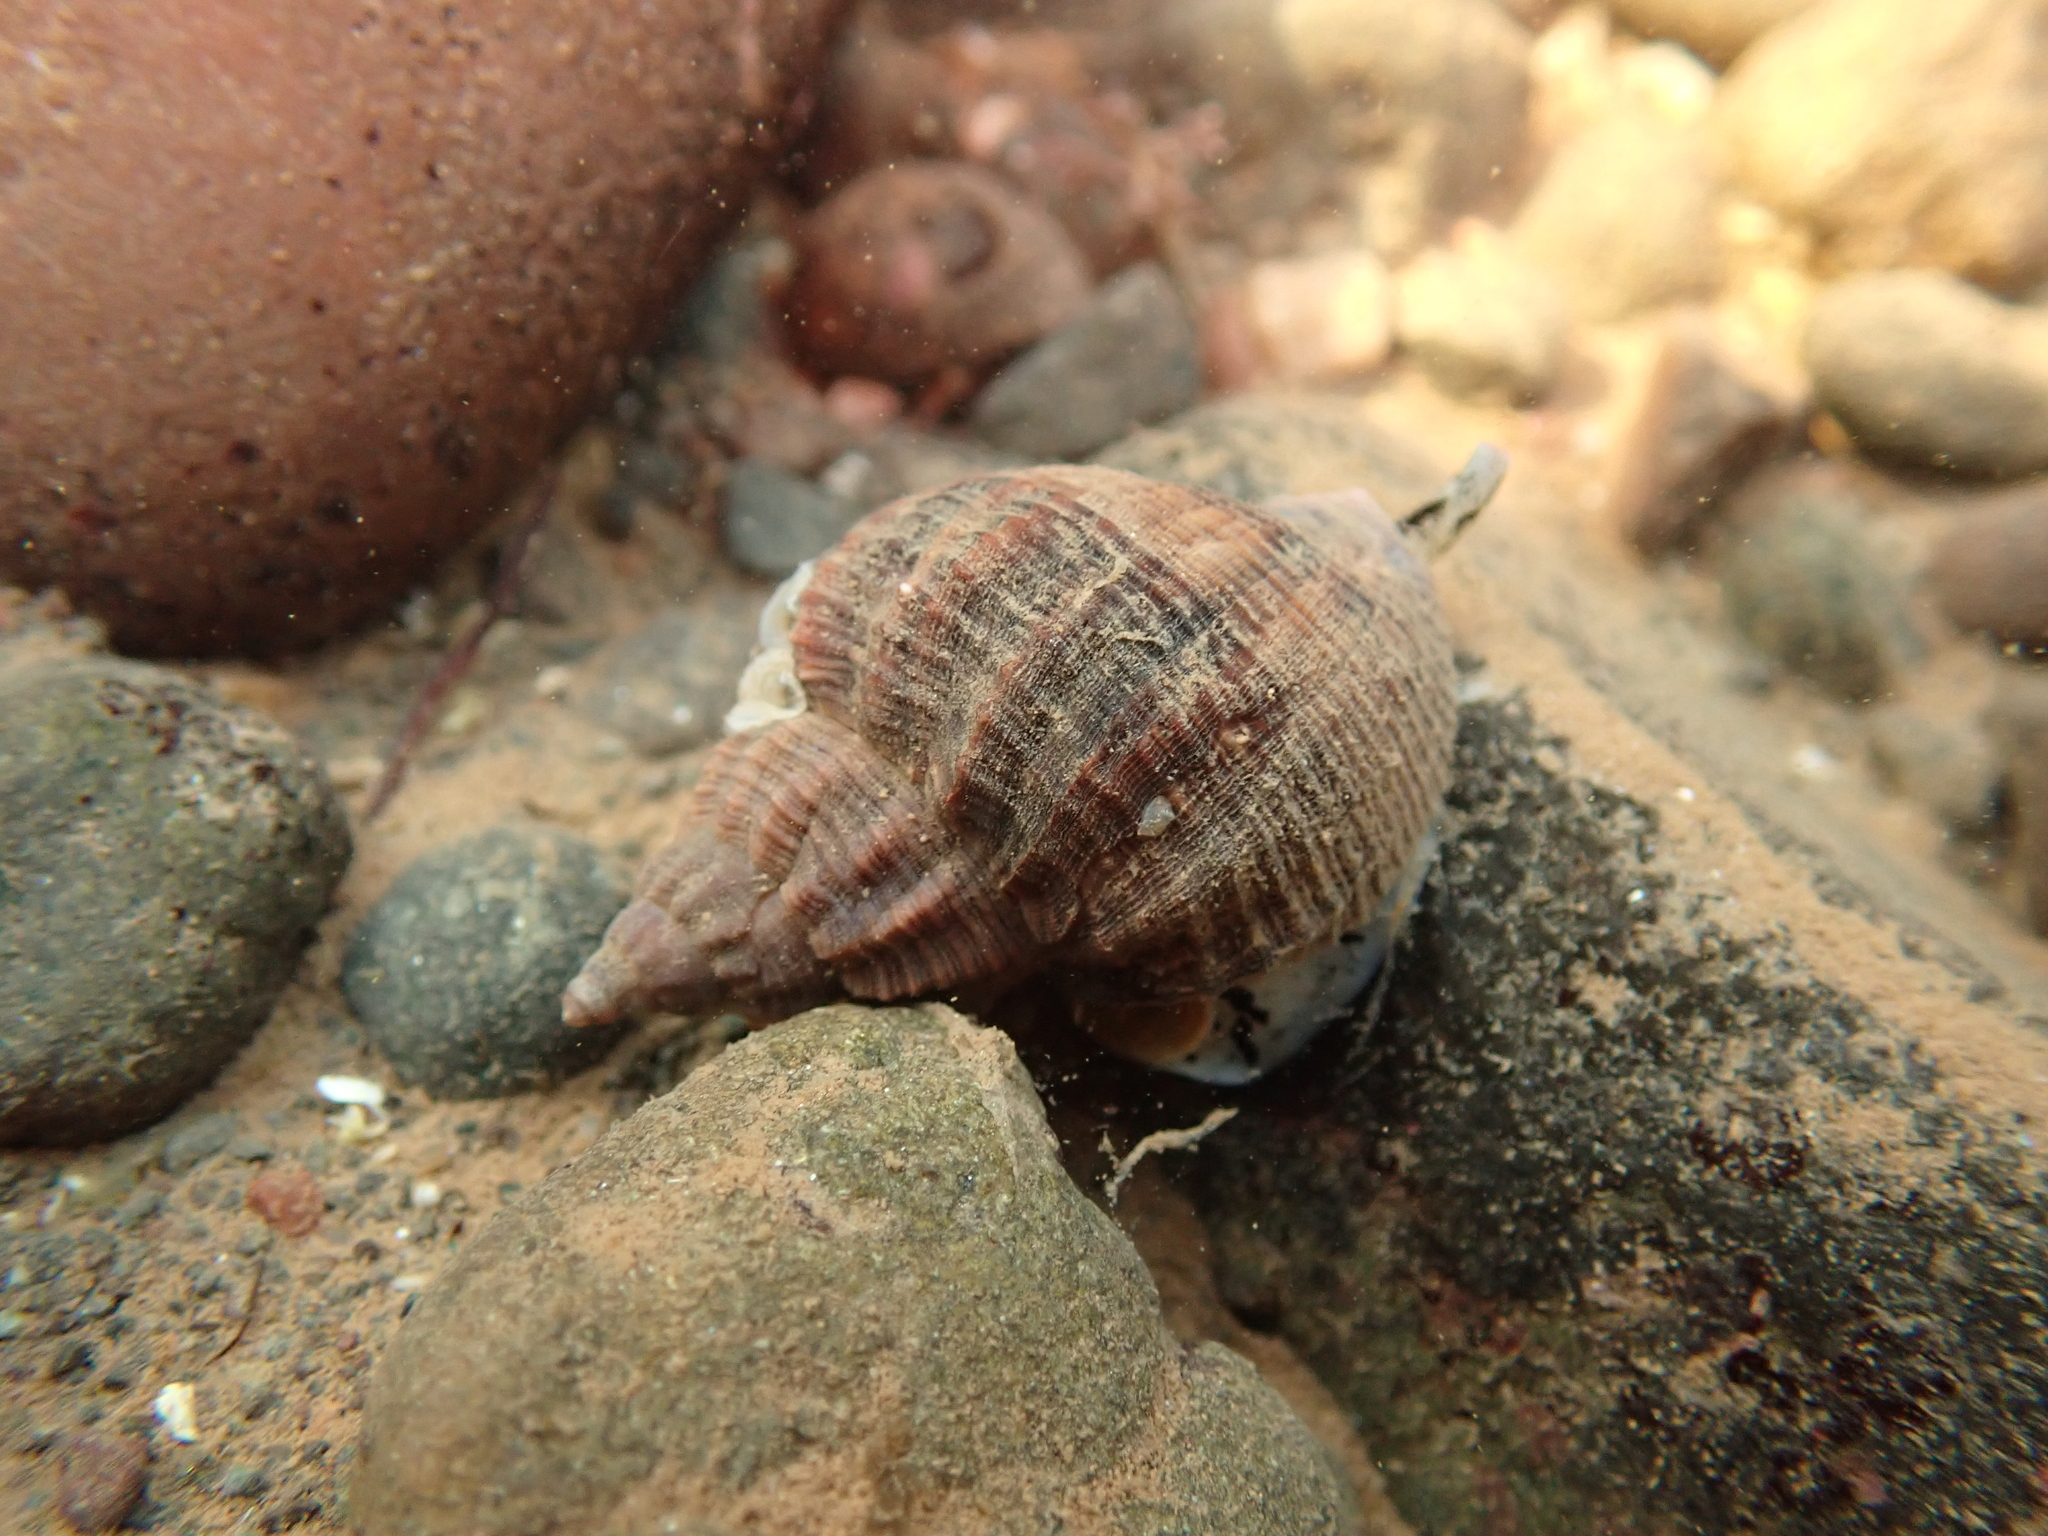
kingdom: Animalia
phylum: Mollusca
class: Gastropoda
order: Neogastropoda
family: Buccinidae
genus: Buccinum
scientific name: Buccinum undatum
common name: Common whelk
